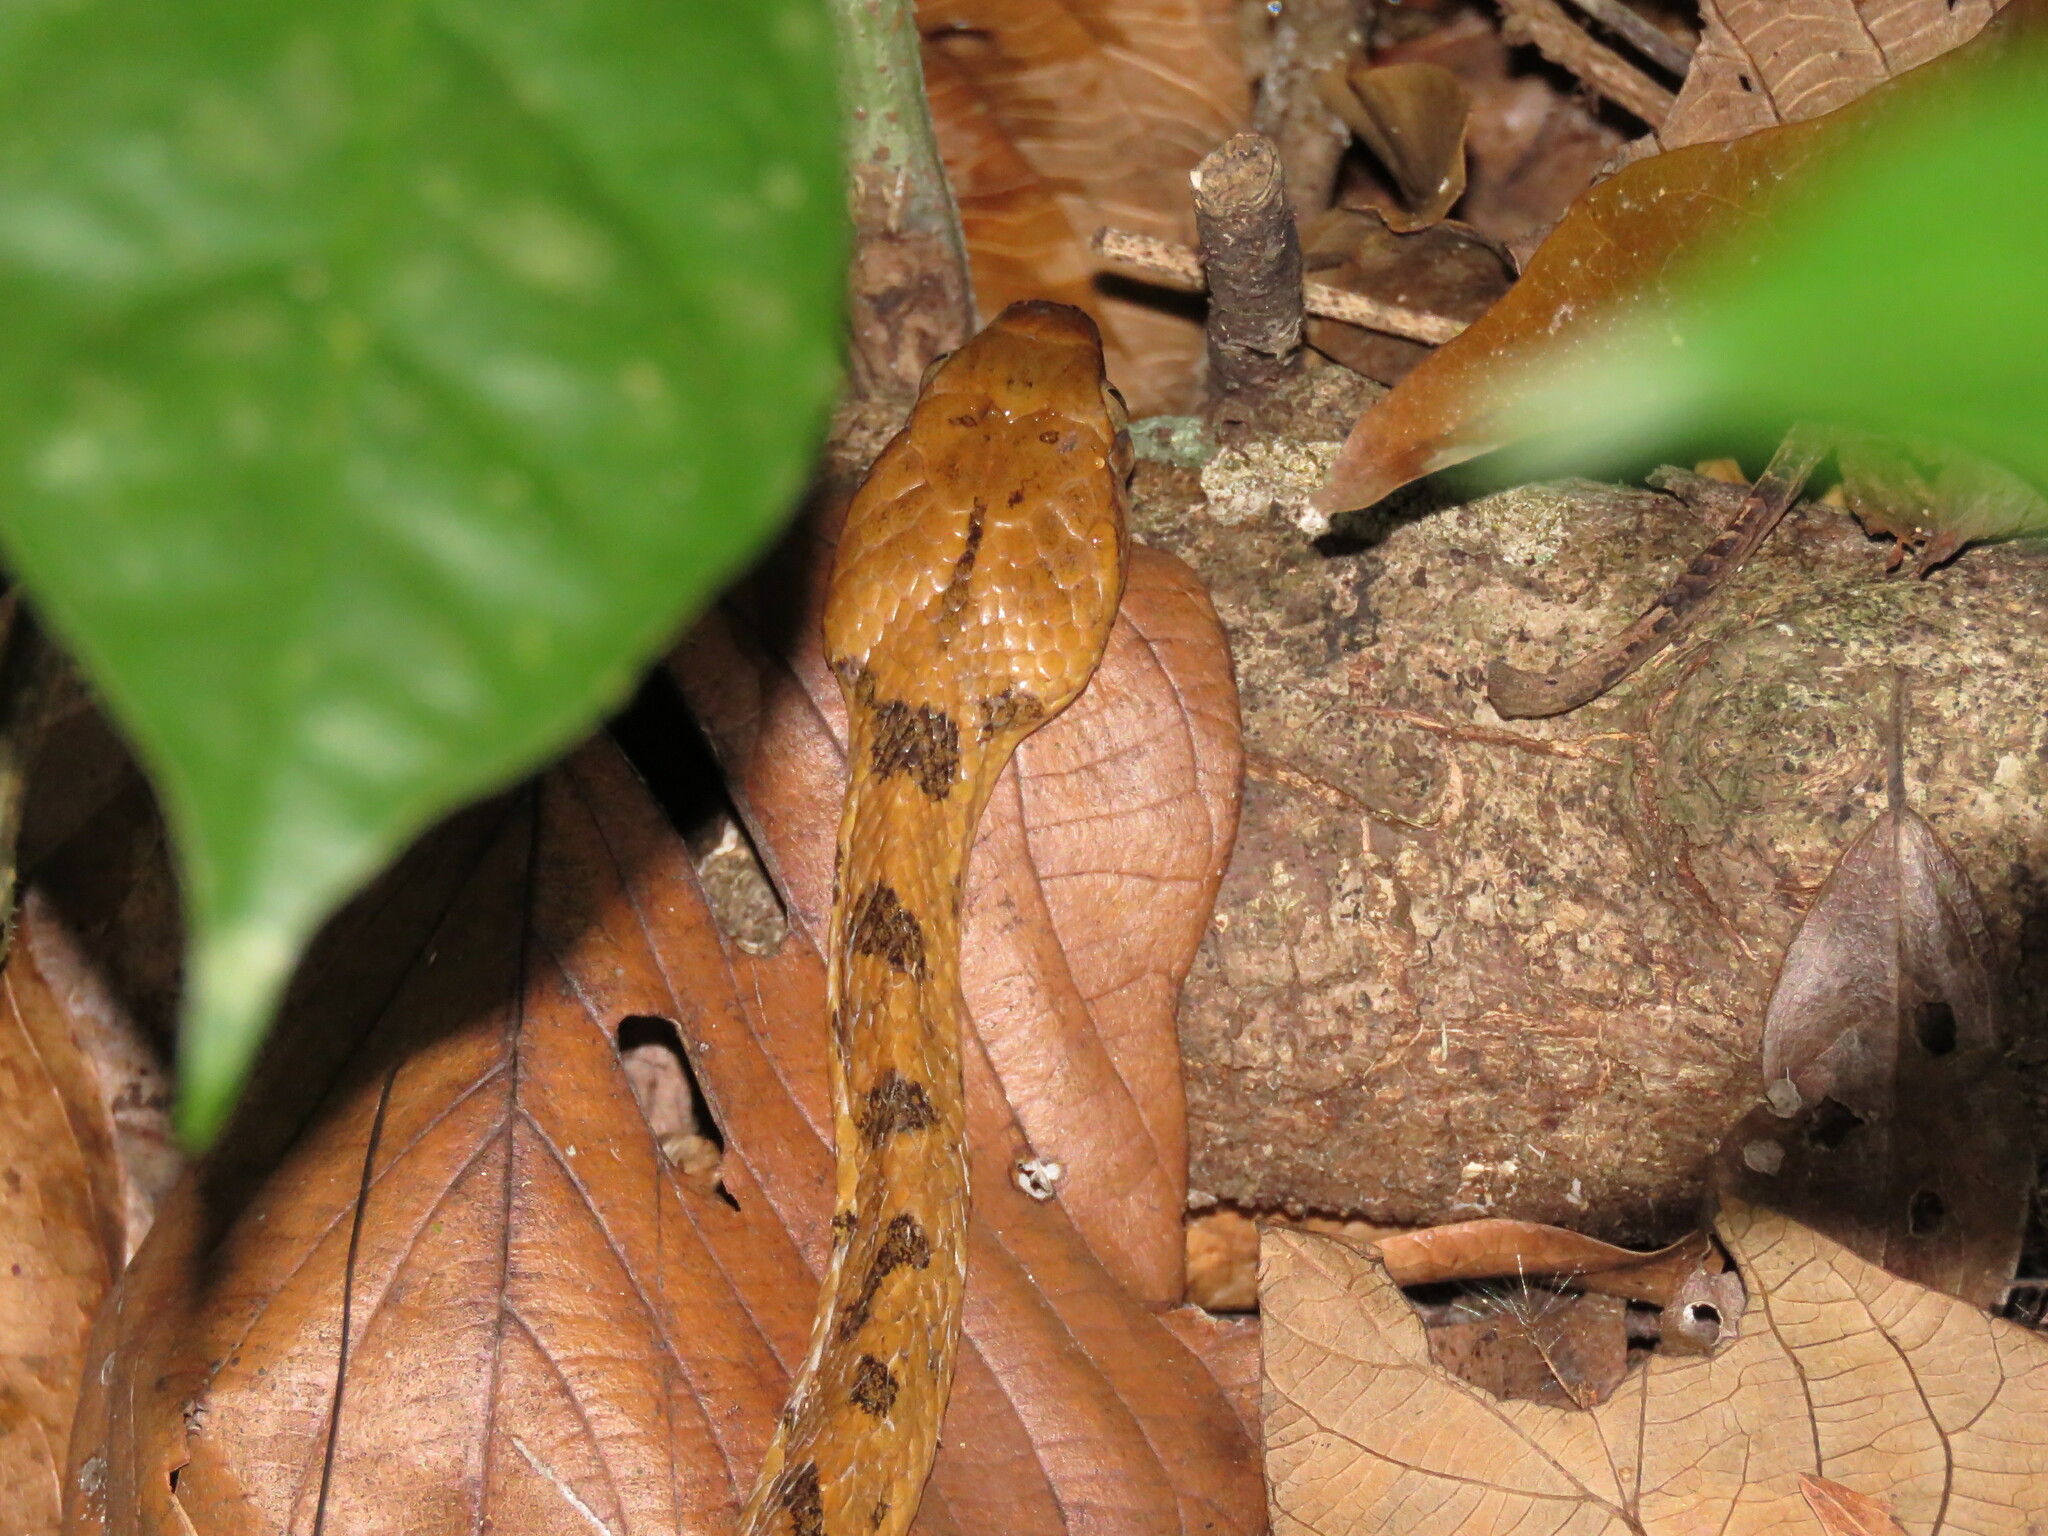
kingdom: Animalia
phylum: Chordata
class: Squamata
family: Colubridae
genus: Leptodeira
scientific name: Leptodeira septentrionalis
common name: Northern cat-eyed snake
